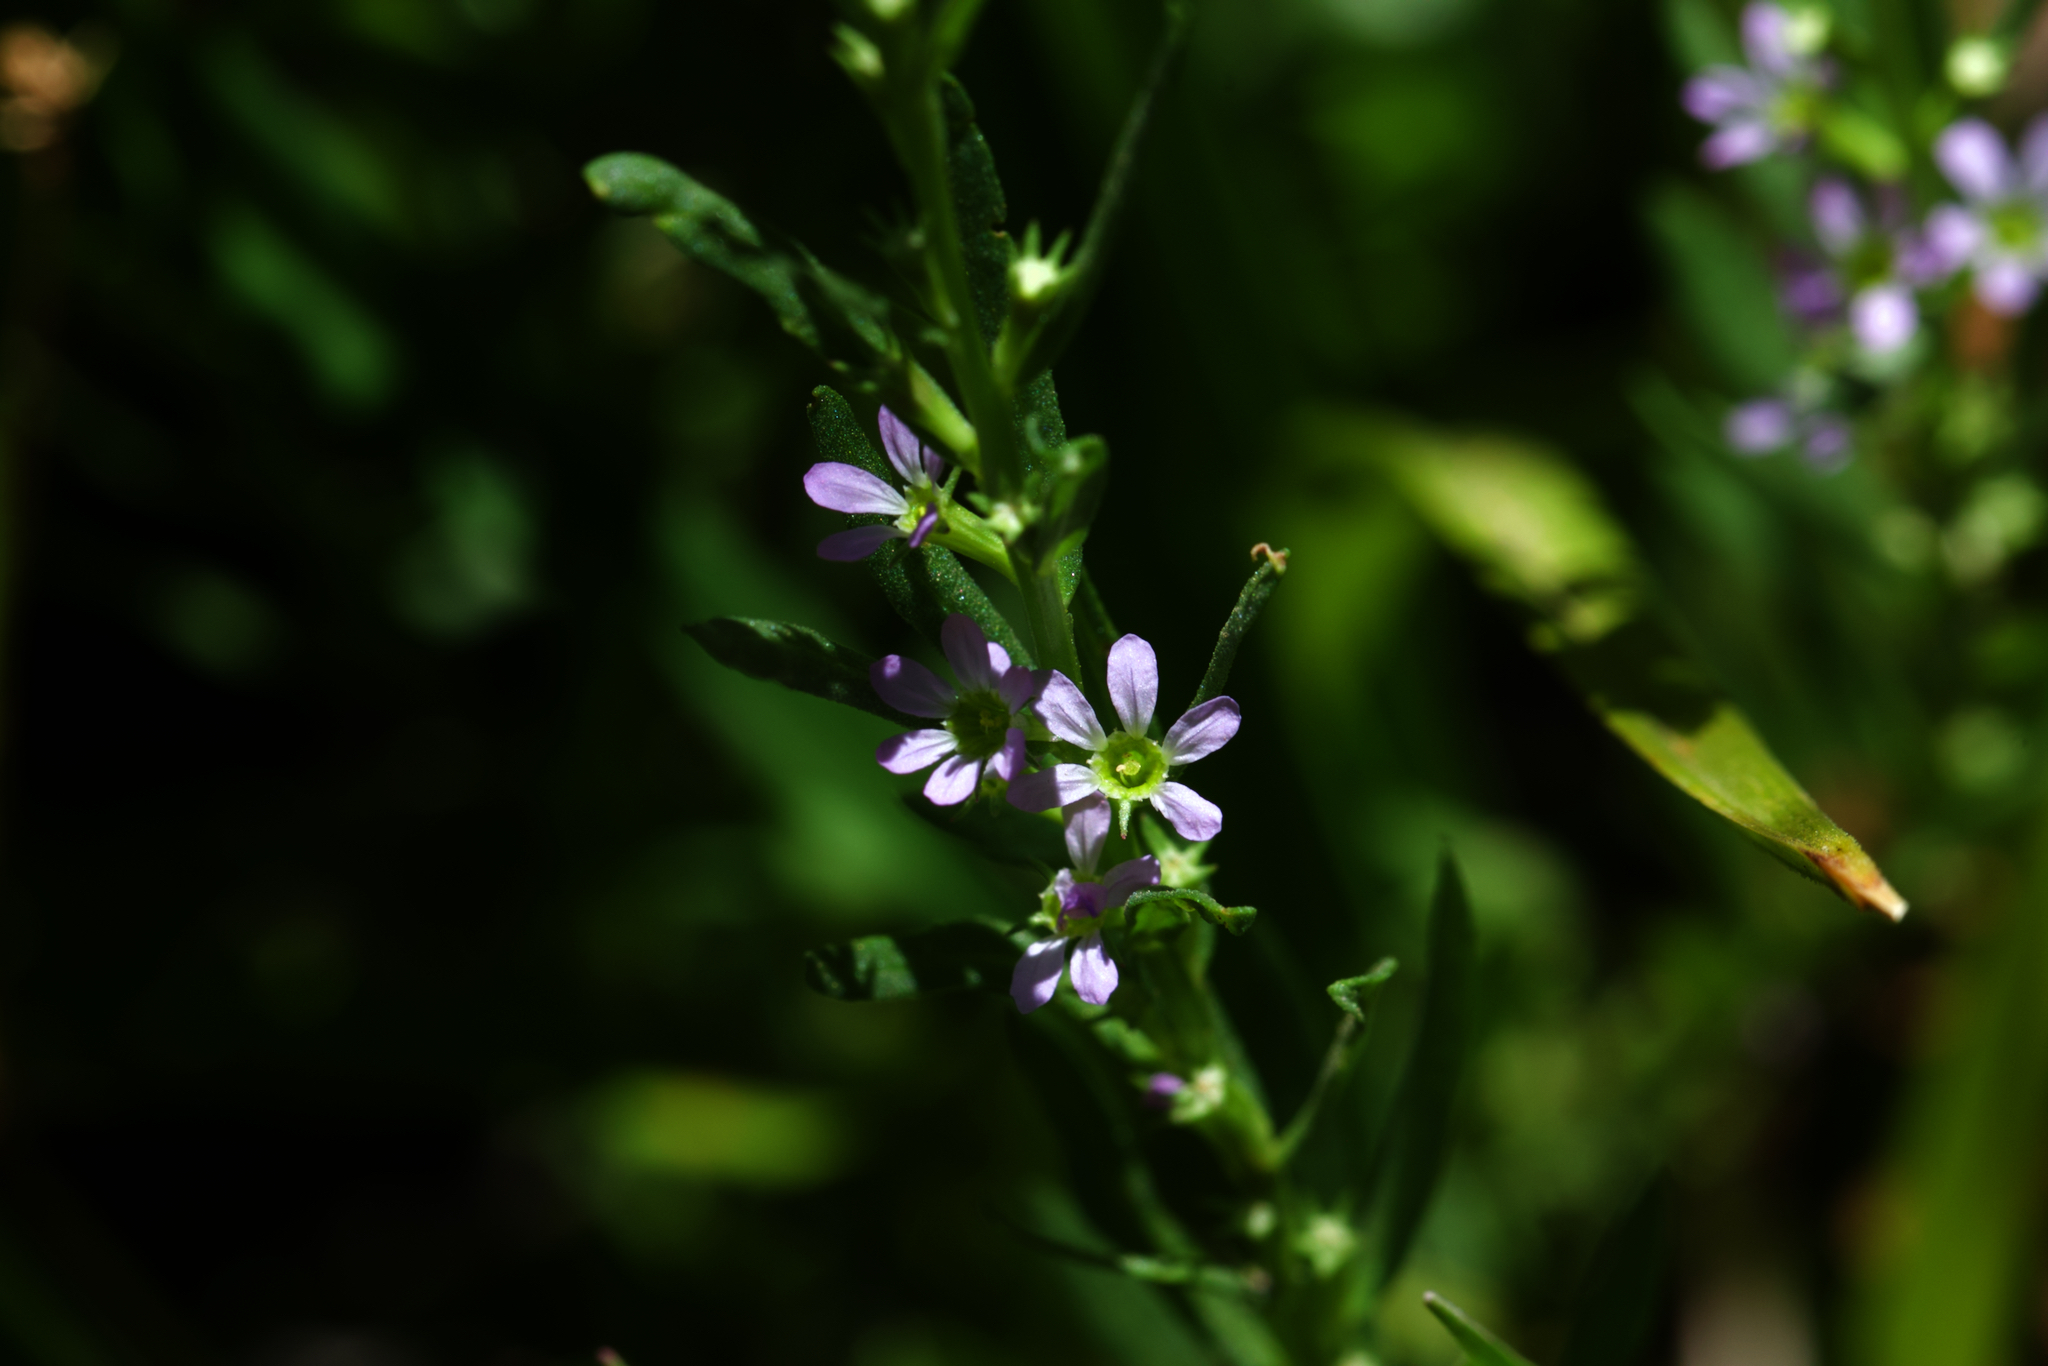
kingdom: Plantae
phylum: Tracheophyta
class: Magnoliopsida
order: Myrtales
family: Lythraceae
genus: Lythrum
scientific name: Lythrum hyssopifolia
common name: Grass-poly
